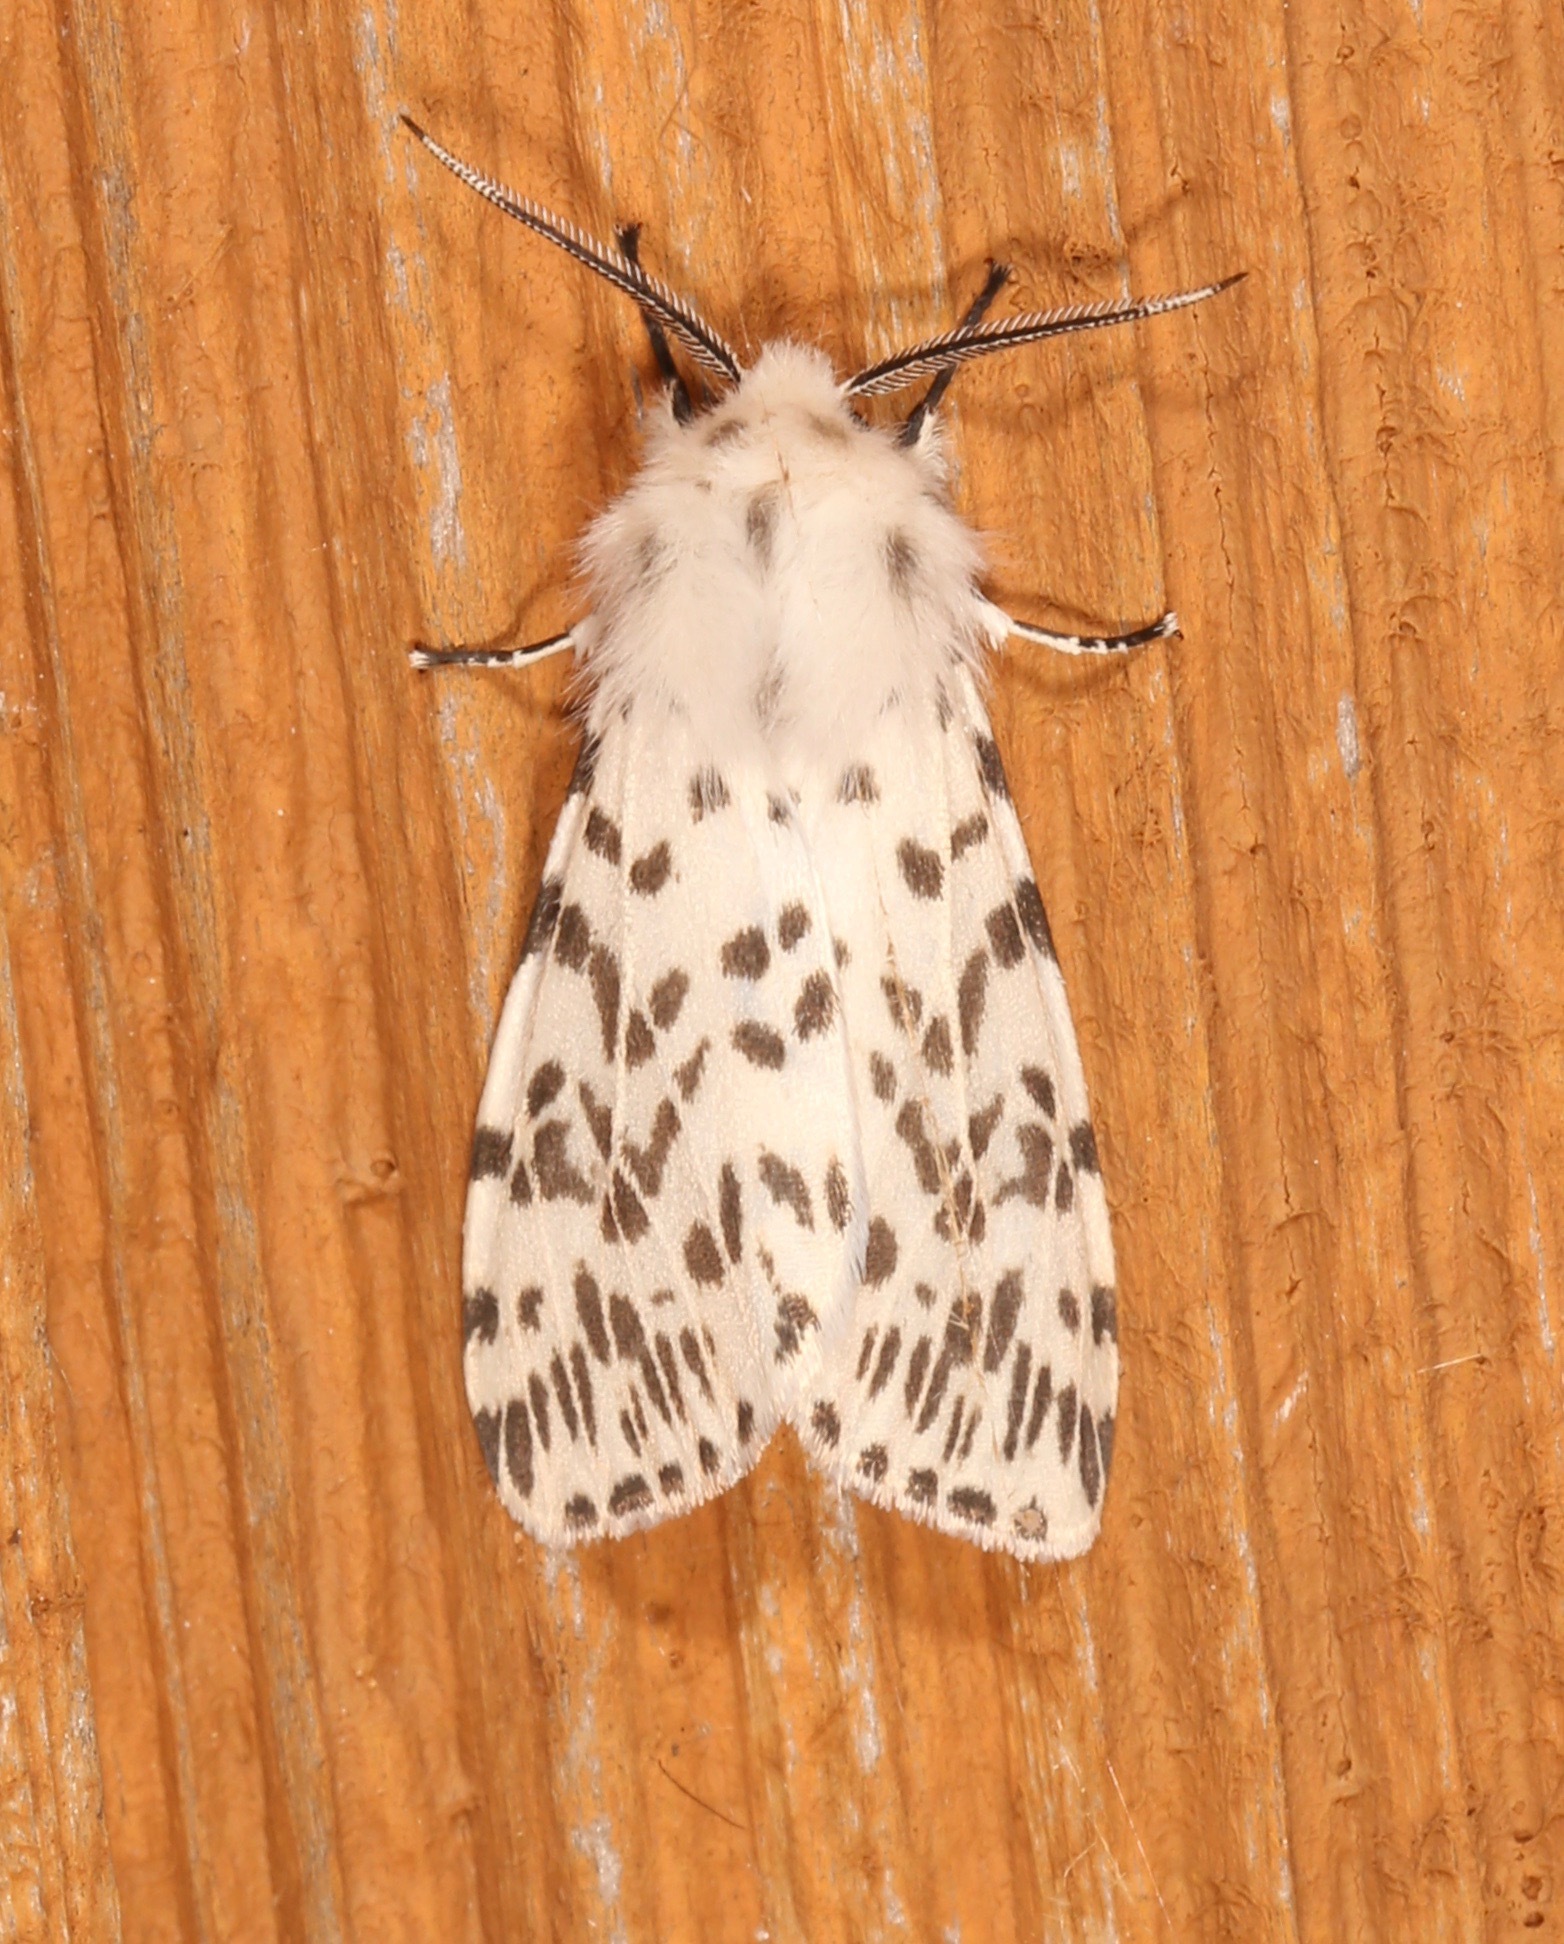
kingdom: Animalia
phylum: Arthropoda
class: Insecta
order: Lepidoptera
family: Erebidae
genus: Hyphantria
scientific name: Hyphantria cunea
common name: American white moth
